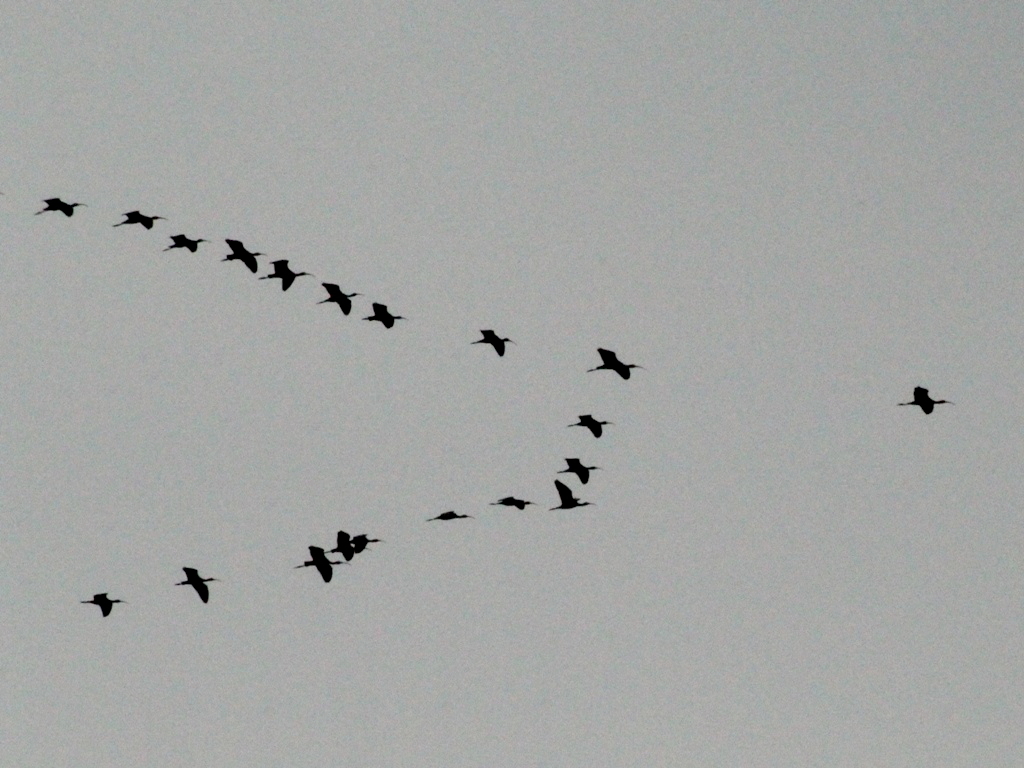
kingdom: Animalia
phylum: Chordata
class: Aves
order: Pelecaniformes
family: Threskiornithidae
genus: Plegadis
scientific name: Plegadis falcinellus
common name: Glossy ibis
